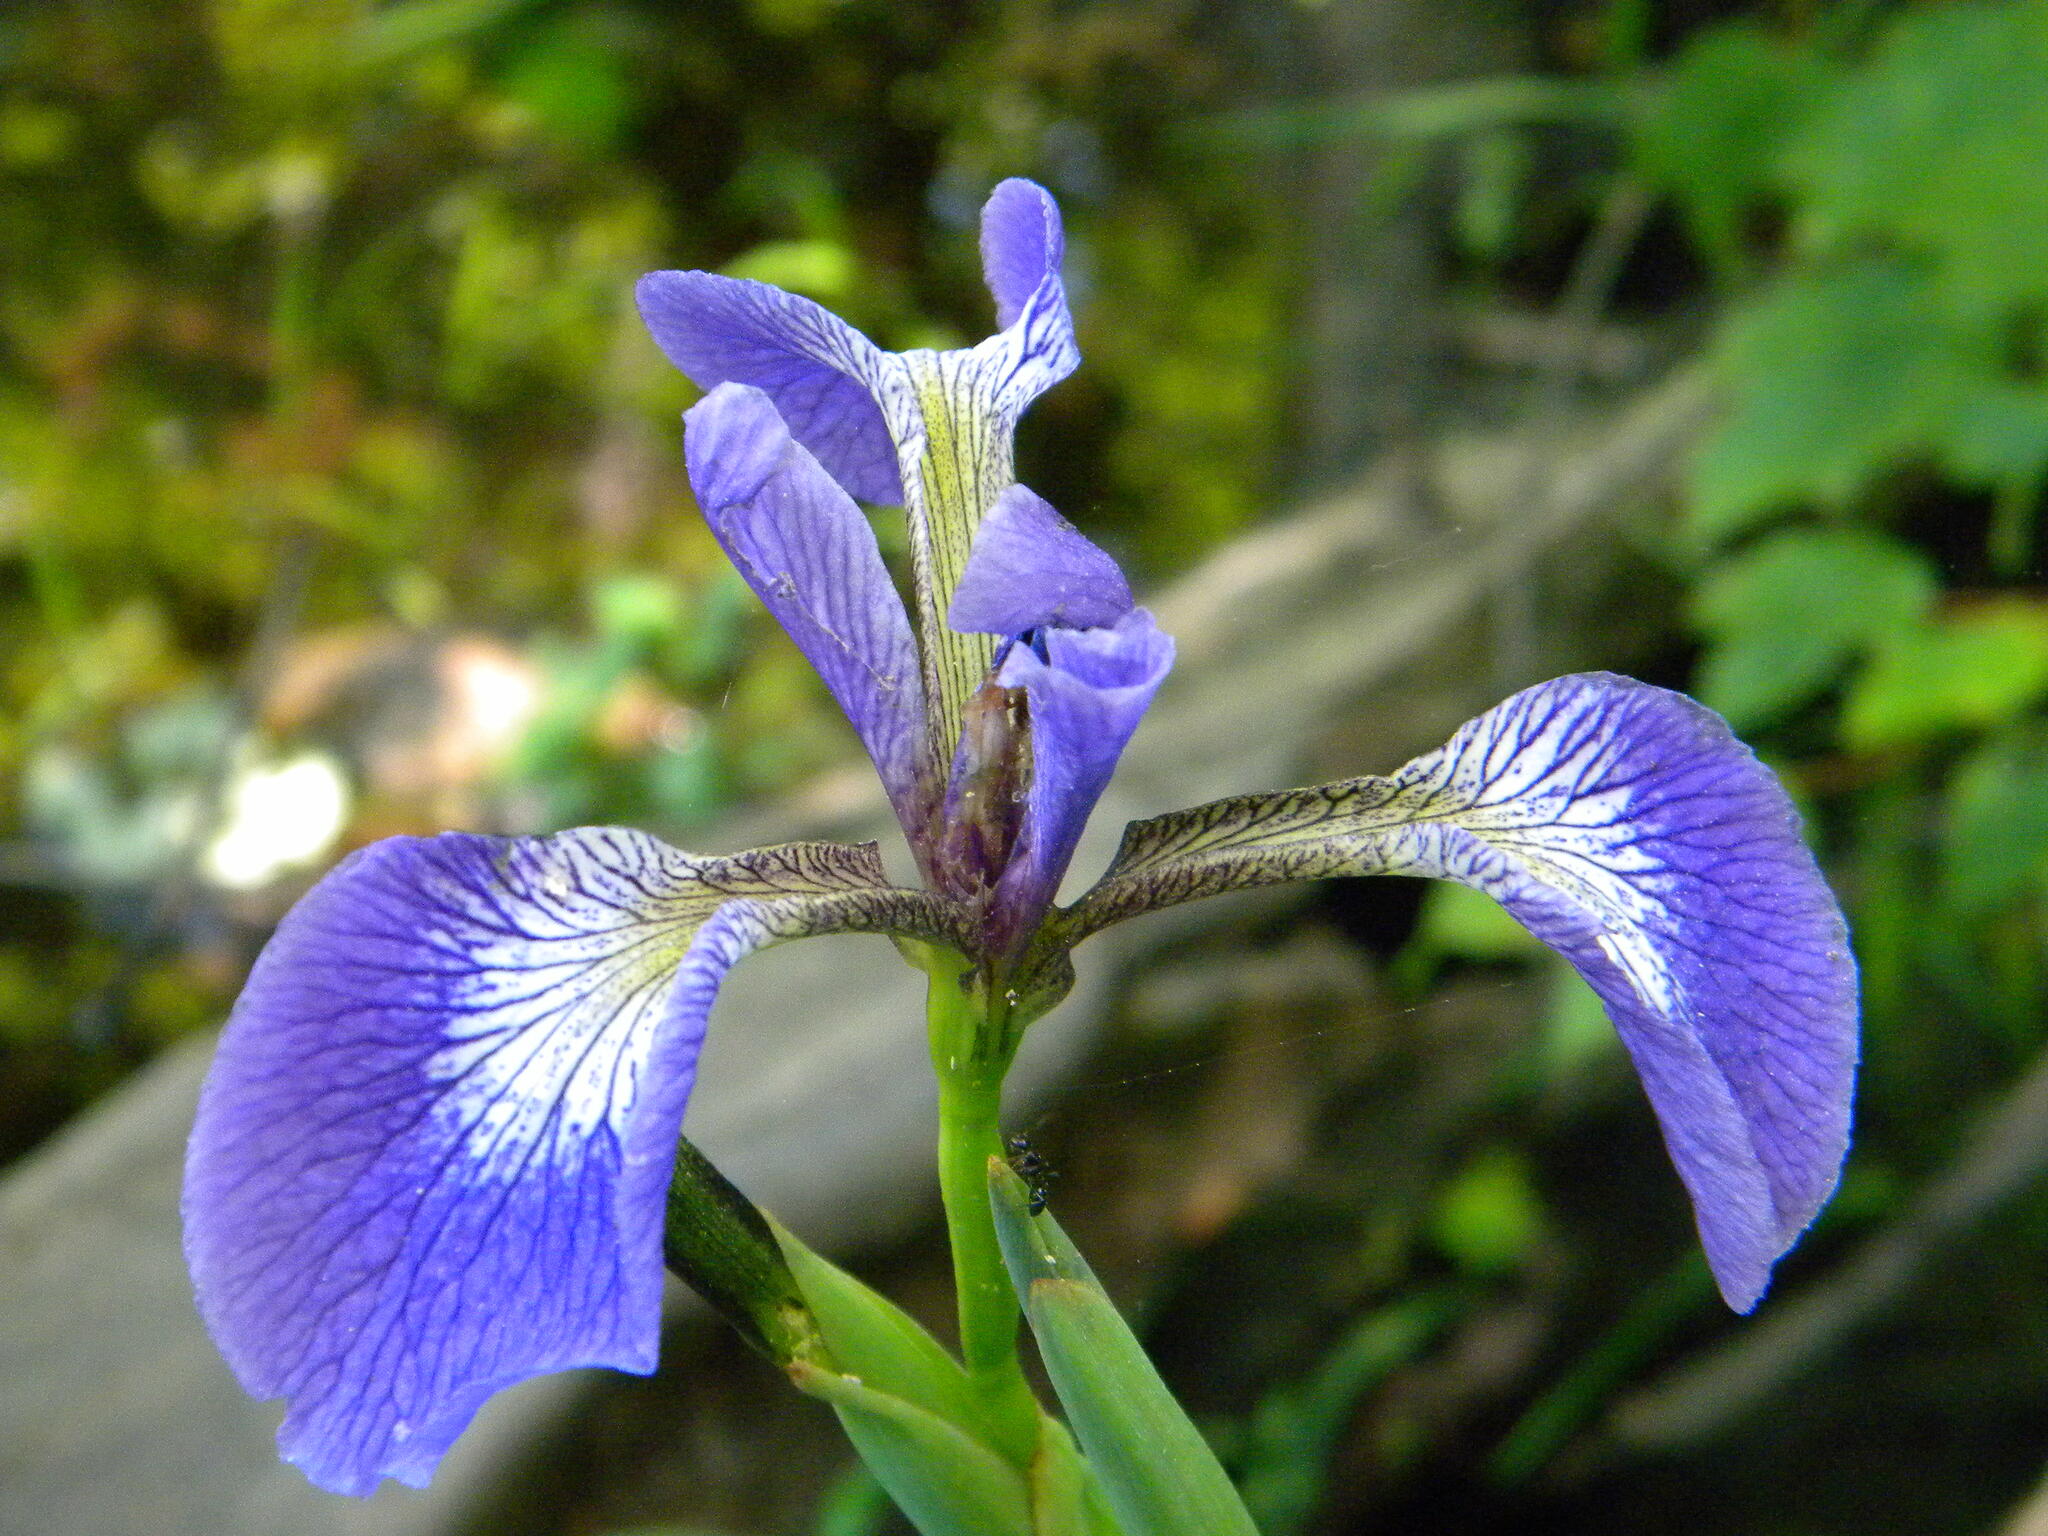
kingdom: Plantae
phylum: Tracheophyta
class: Liliopsida
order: Asparagales
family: Iridaceae
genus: Iris
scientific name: Iris versicolor
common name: Purple iris
